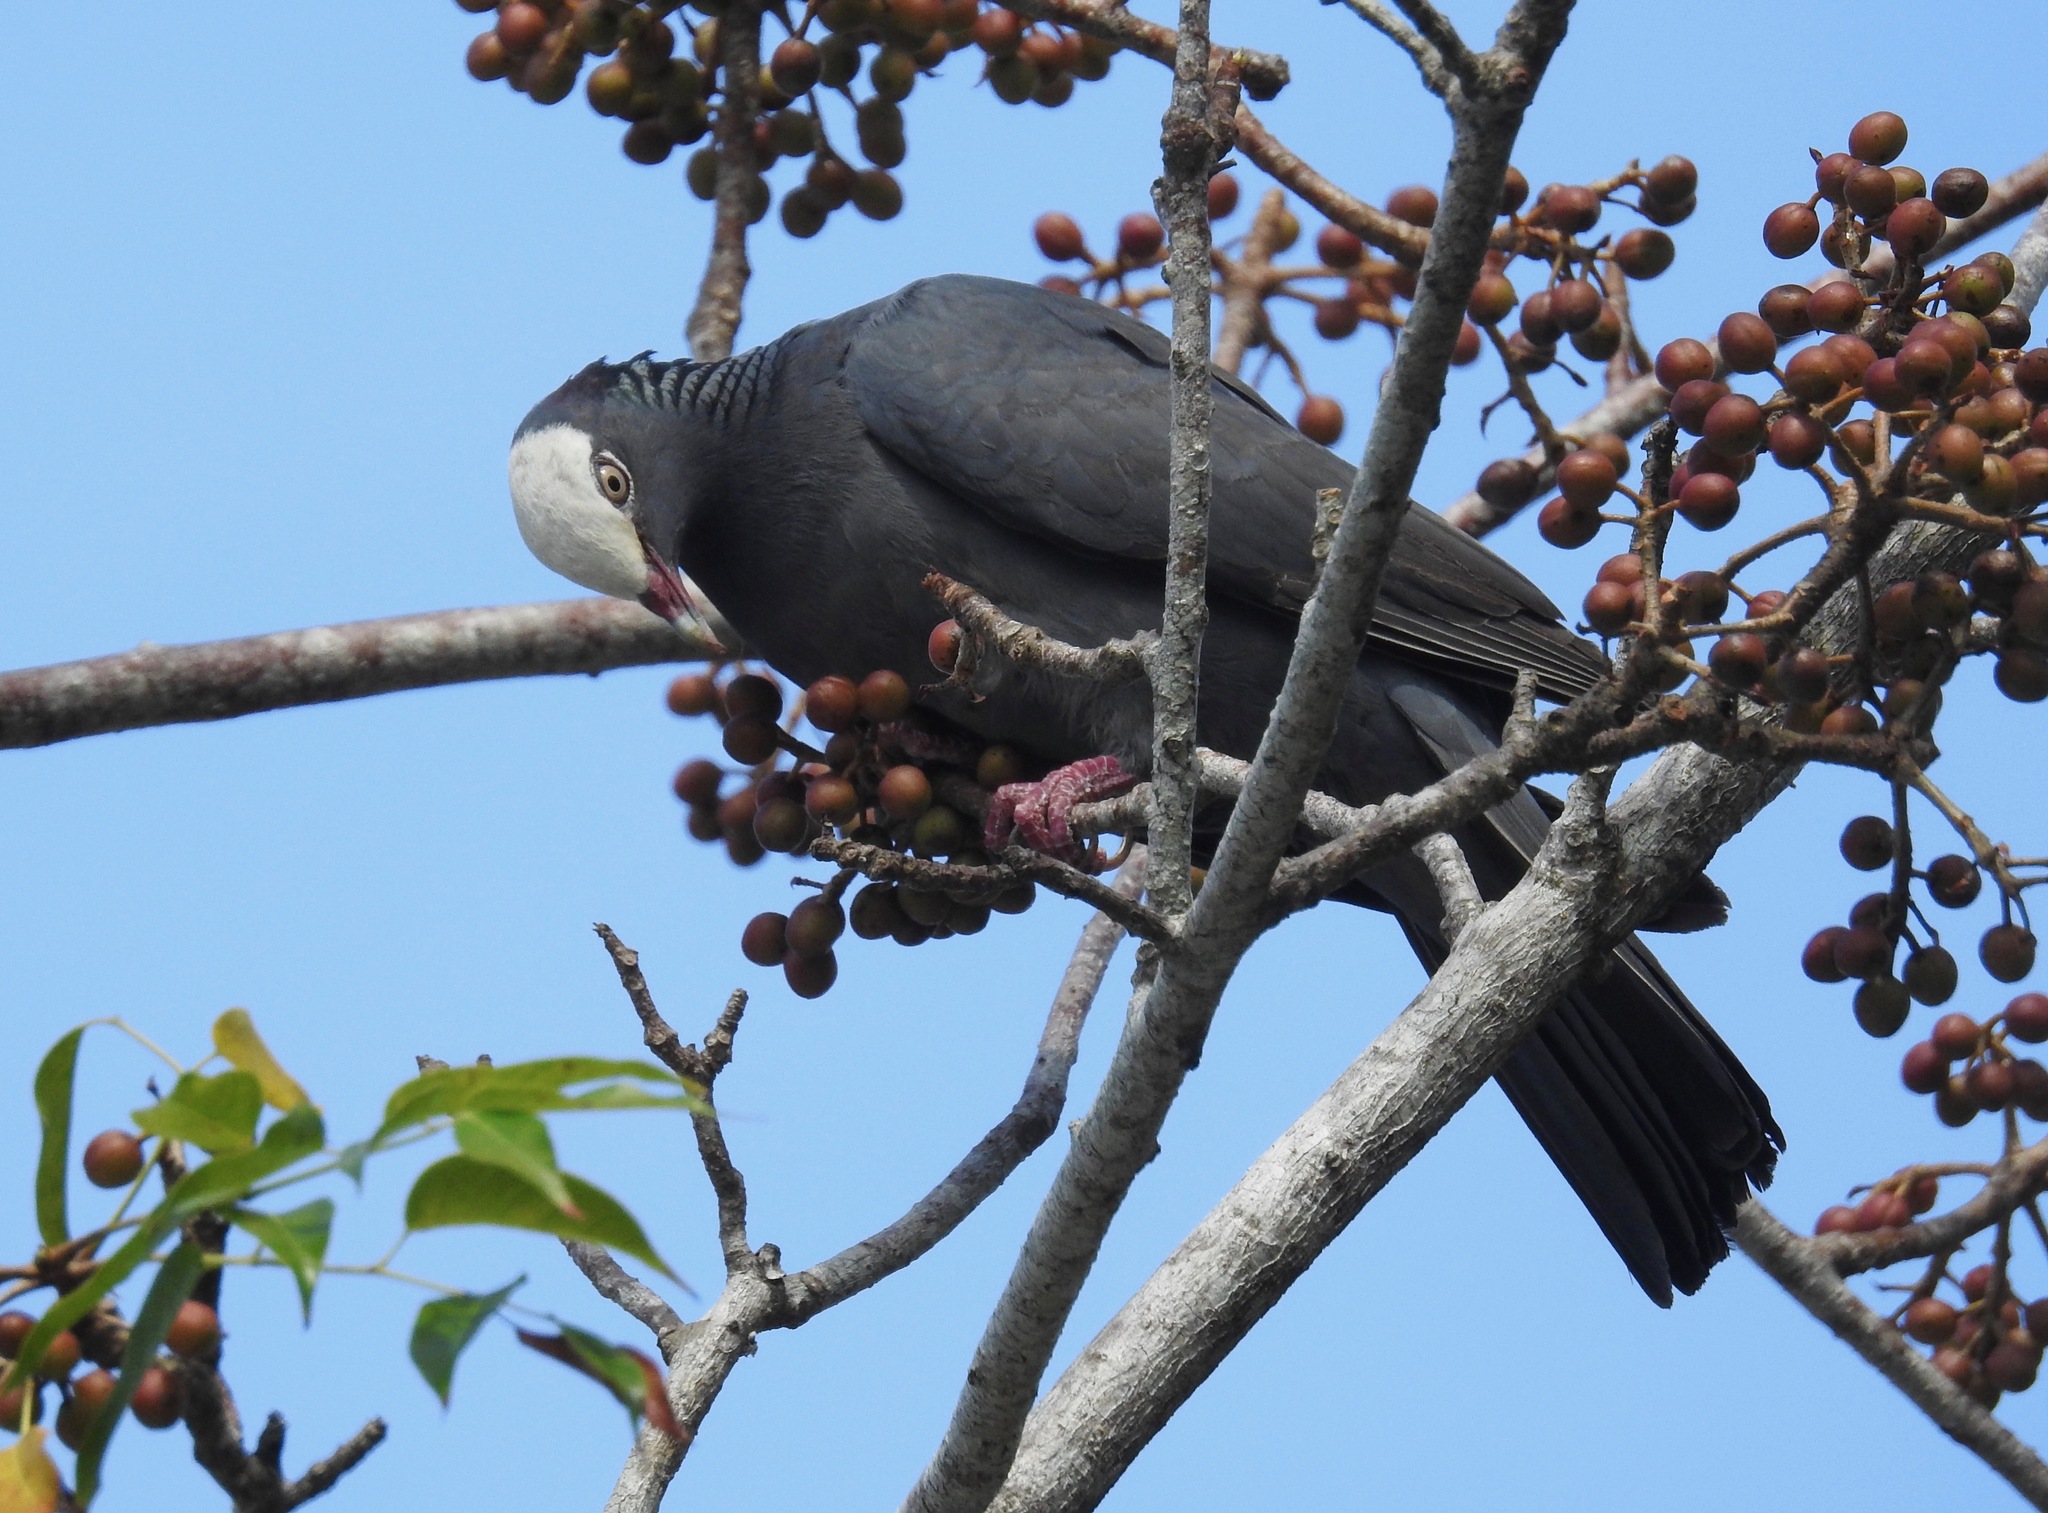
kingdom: Animalia
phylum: Chordata
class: Aves
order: Columbiformes
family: Columbidae
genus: Patagioenas
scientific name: Patagioenas leucocephala
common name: White-crowned pigeon
